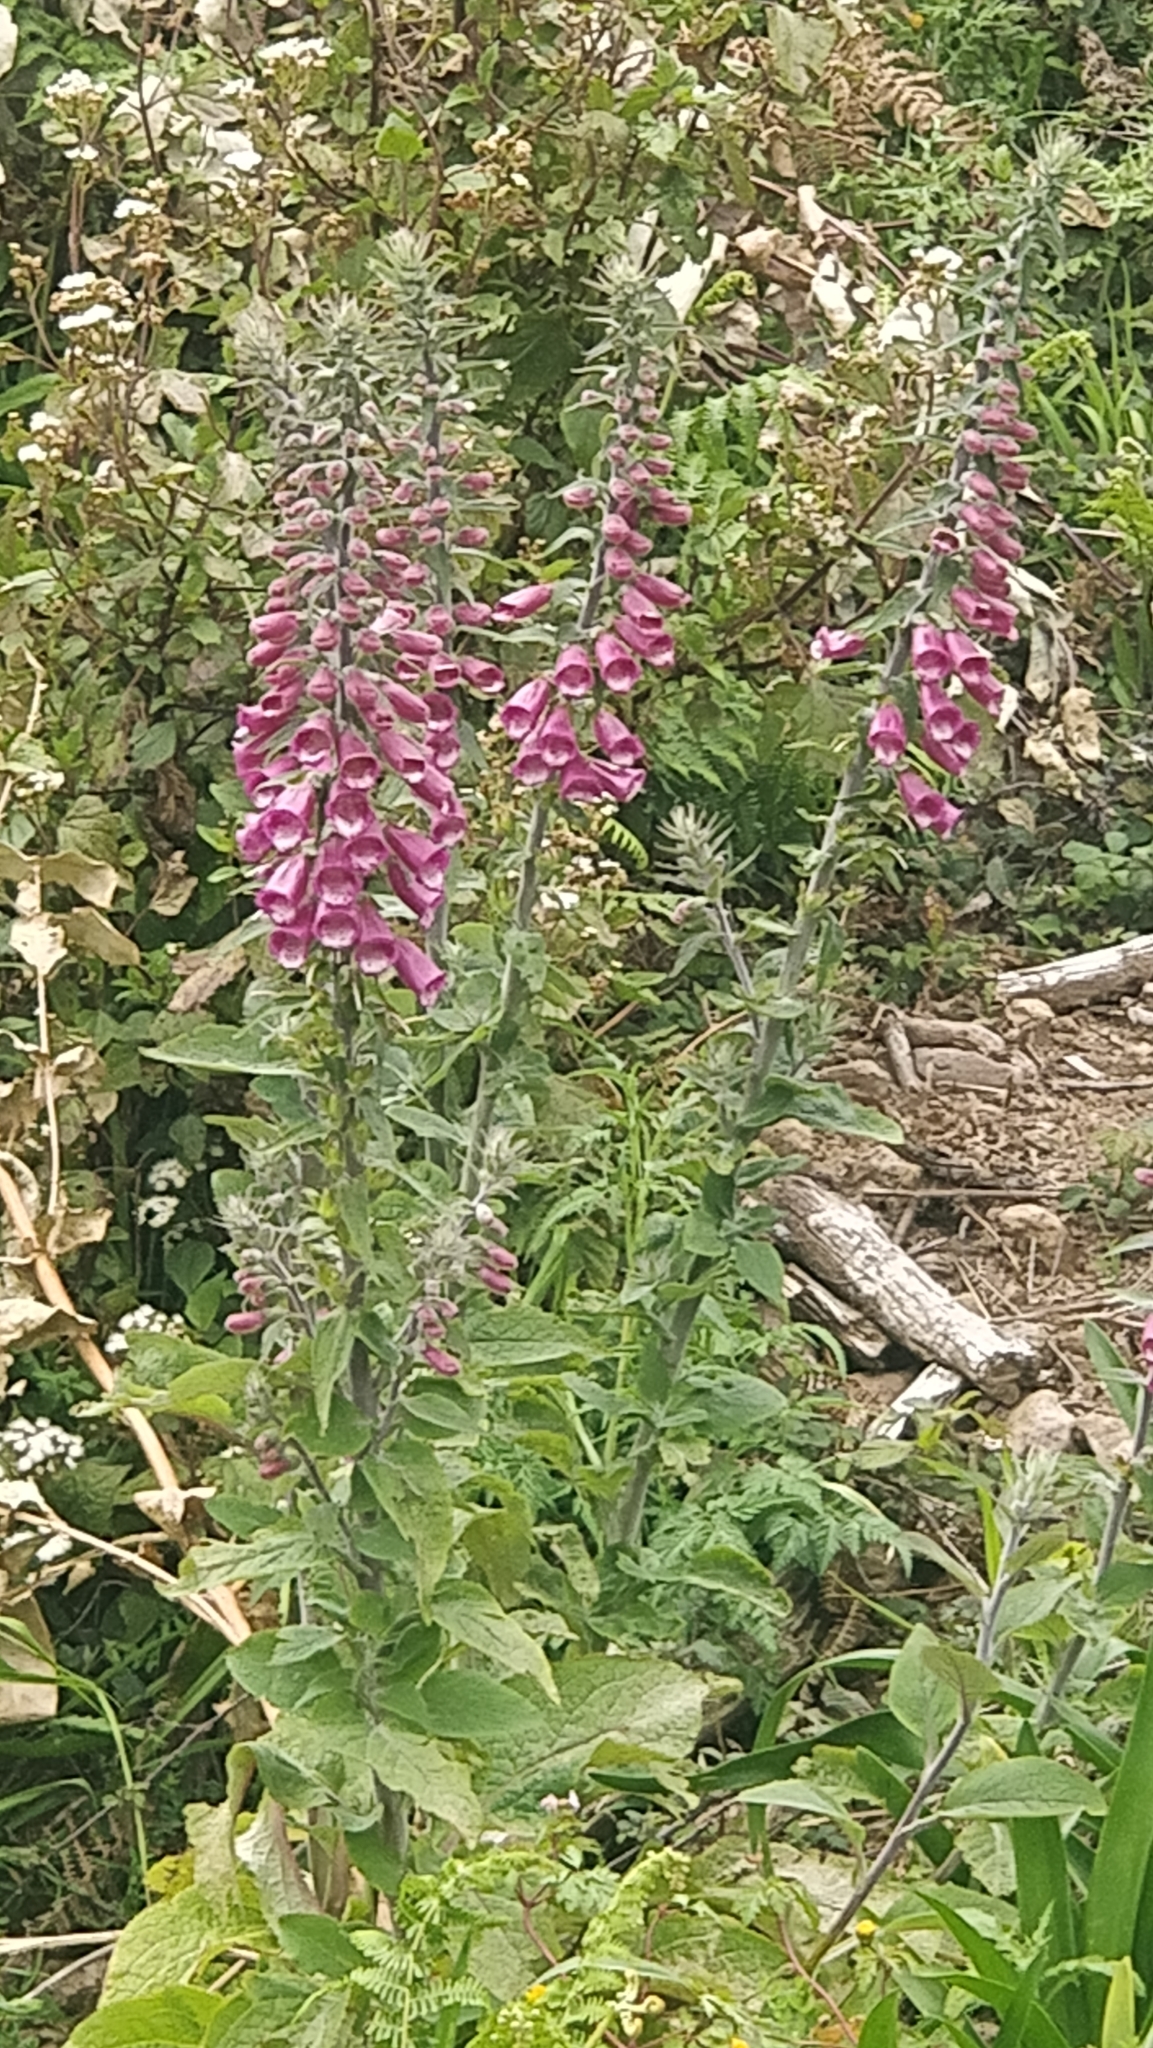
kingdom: Plantae
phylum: Tracheophyta
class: Magnoliopsida
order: Lamiales
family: Plantaginaceae
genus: Digitalis
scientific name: Digitalis purpurea
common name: Foxglove
